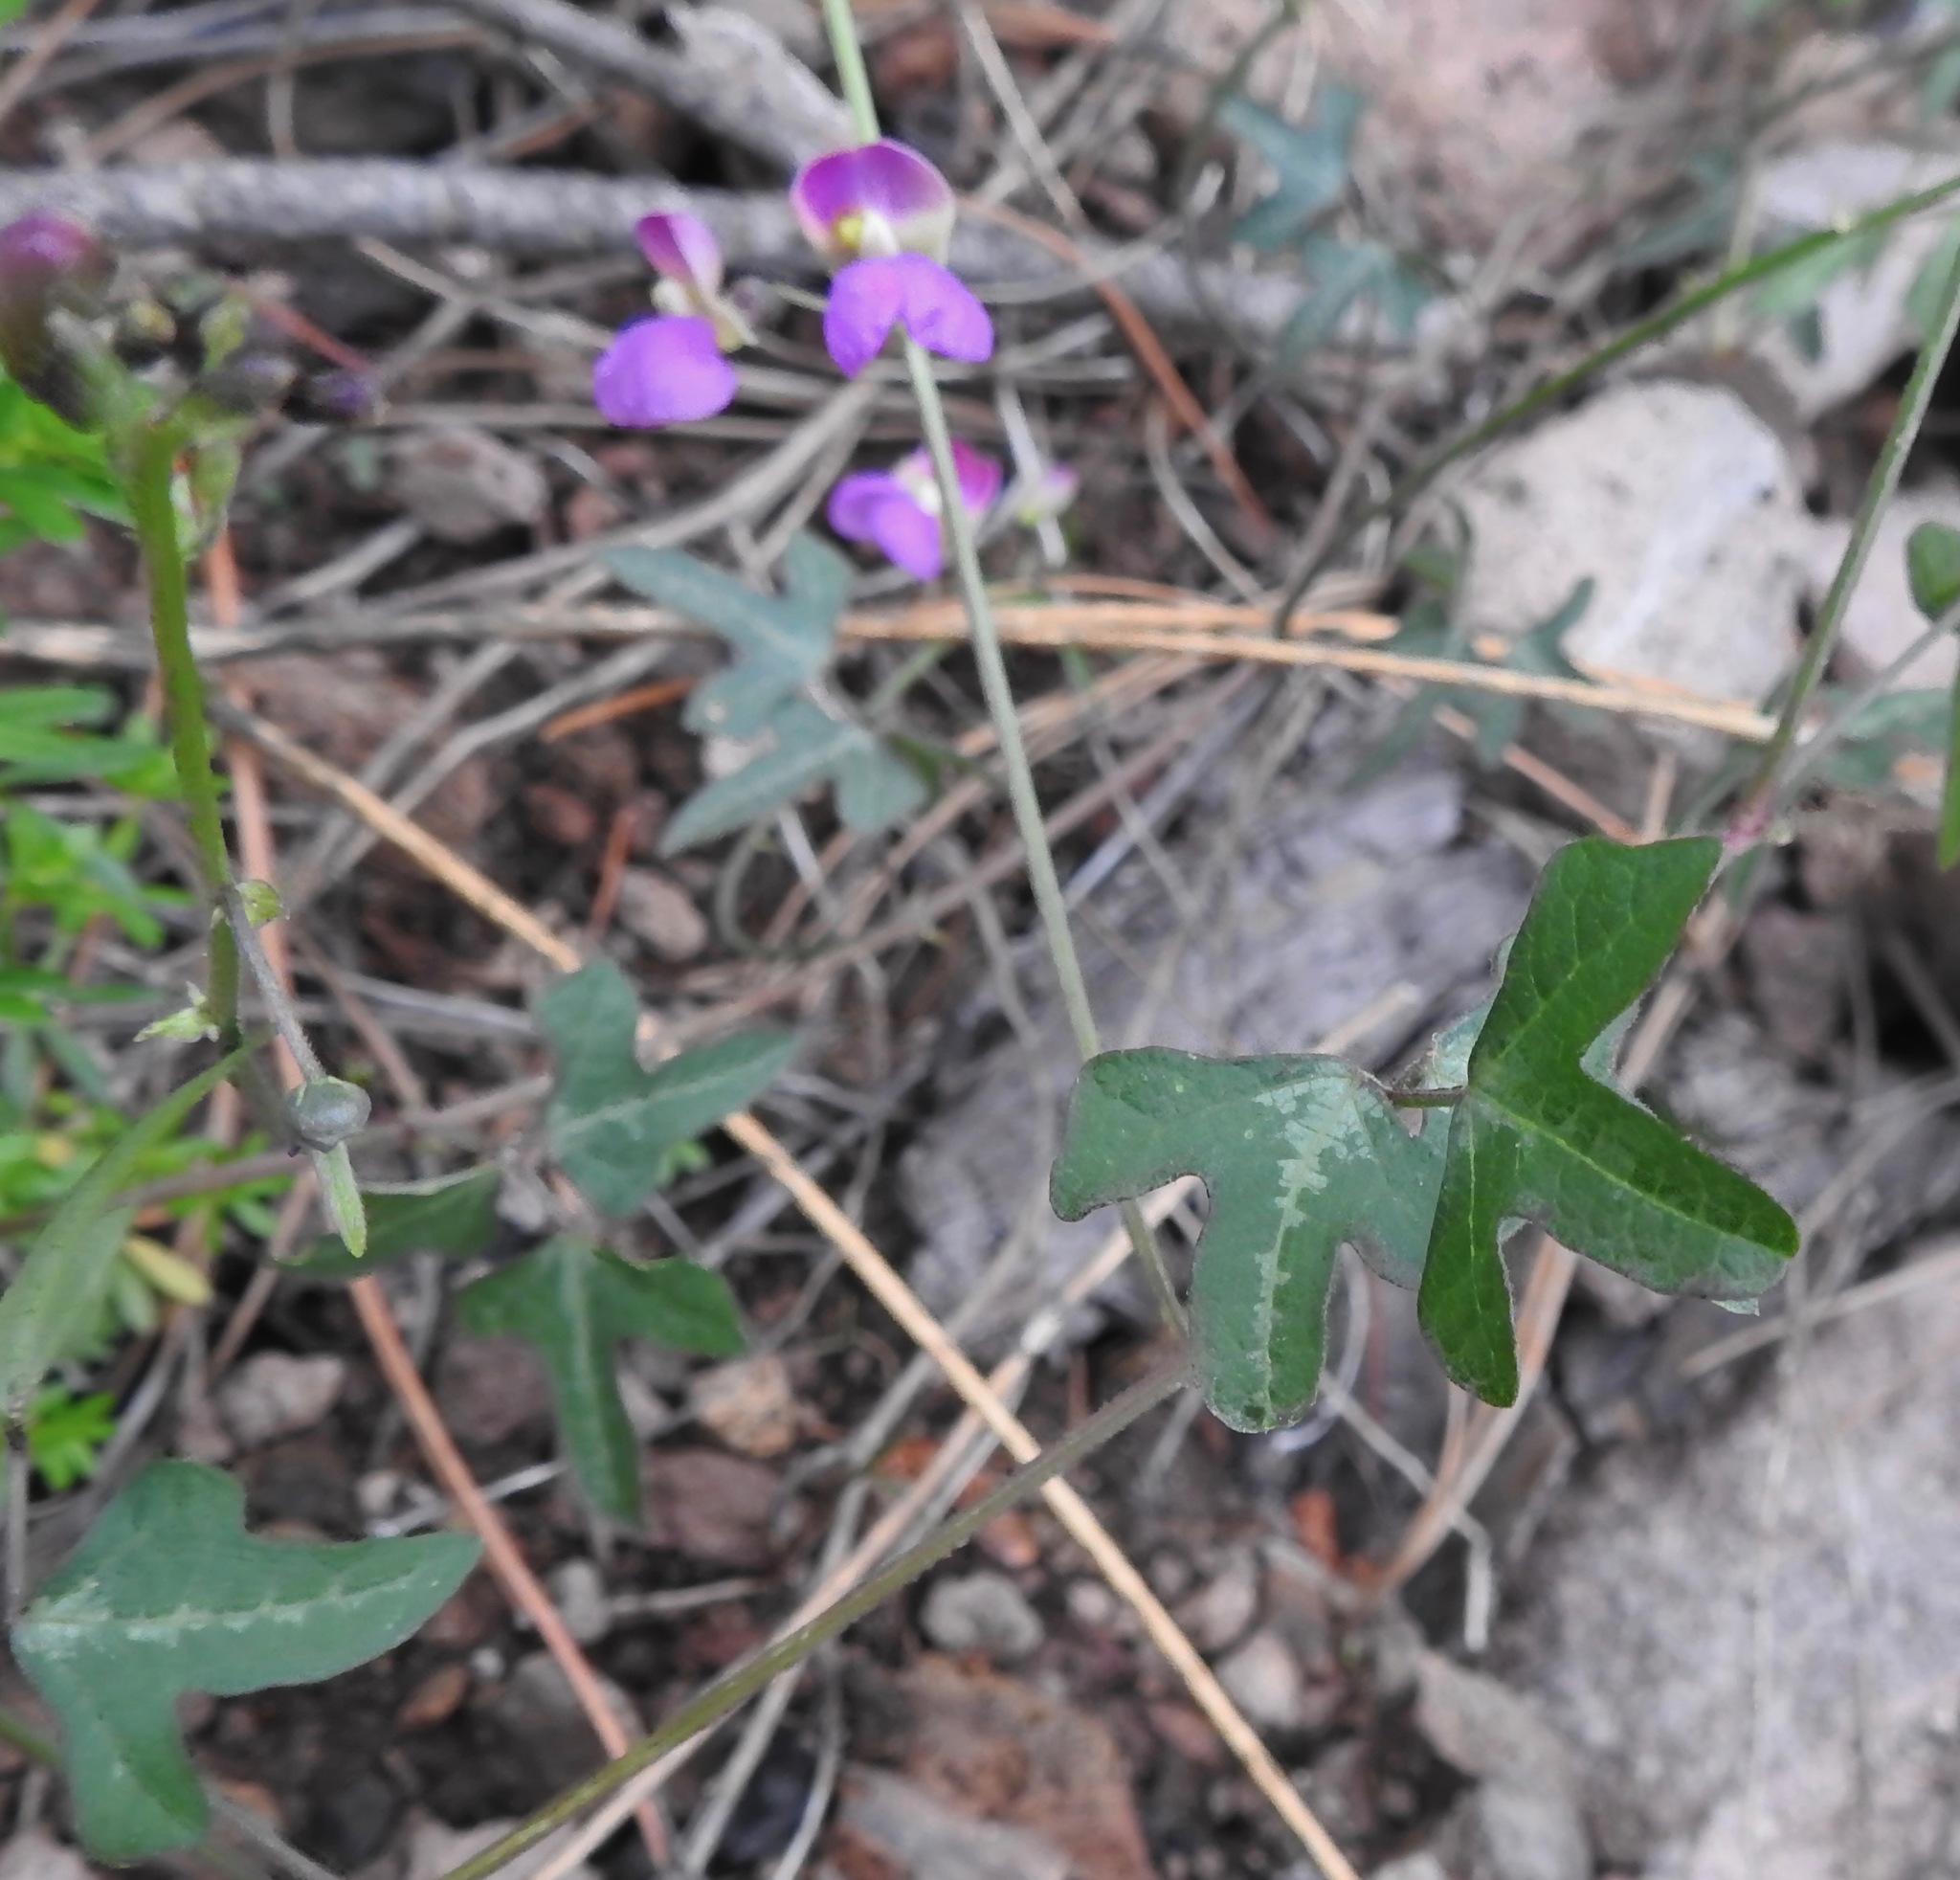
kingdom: Plantae
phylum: Tracheophyta
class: Magnoliopsida
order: Fabales
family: Fabaceae
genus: Phaseolus
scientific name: Phaseolus pedicellatus
